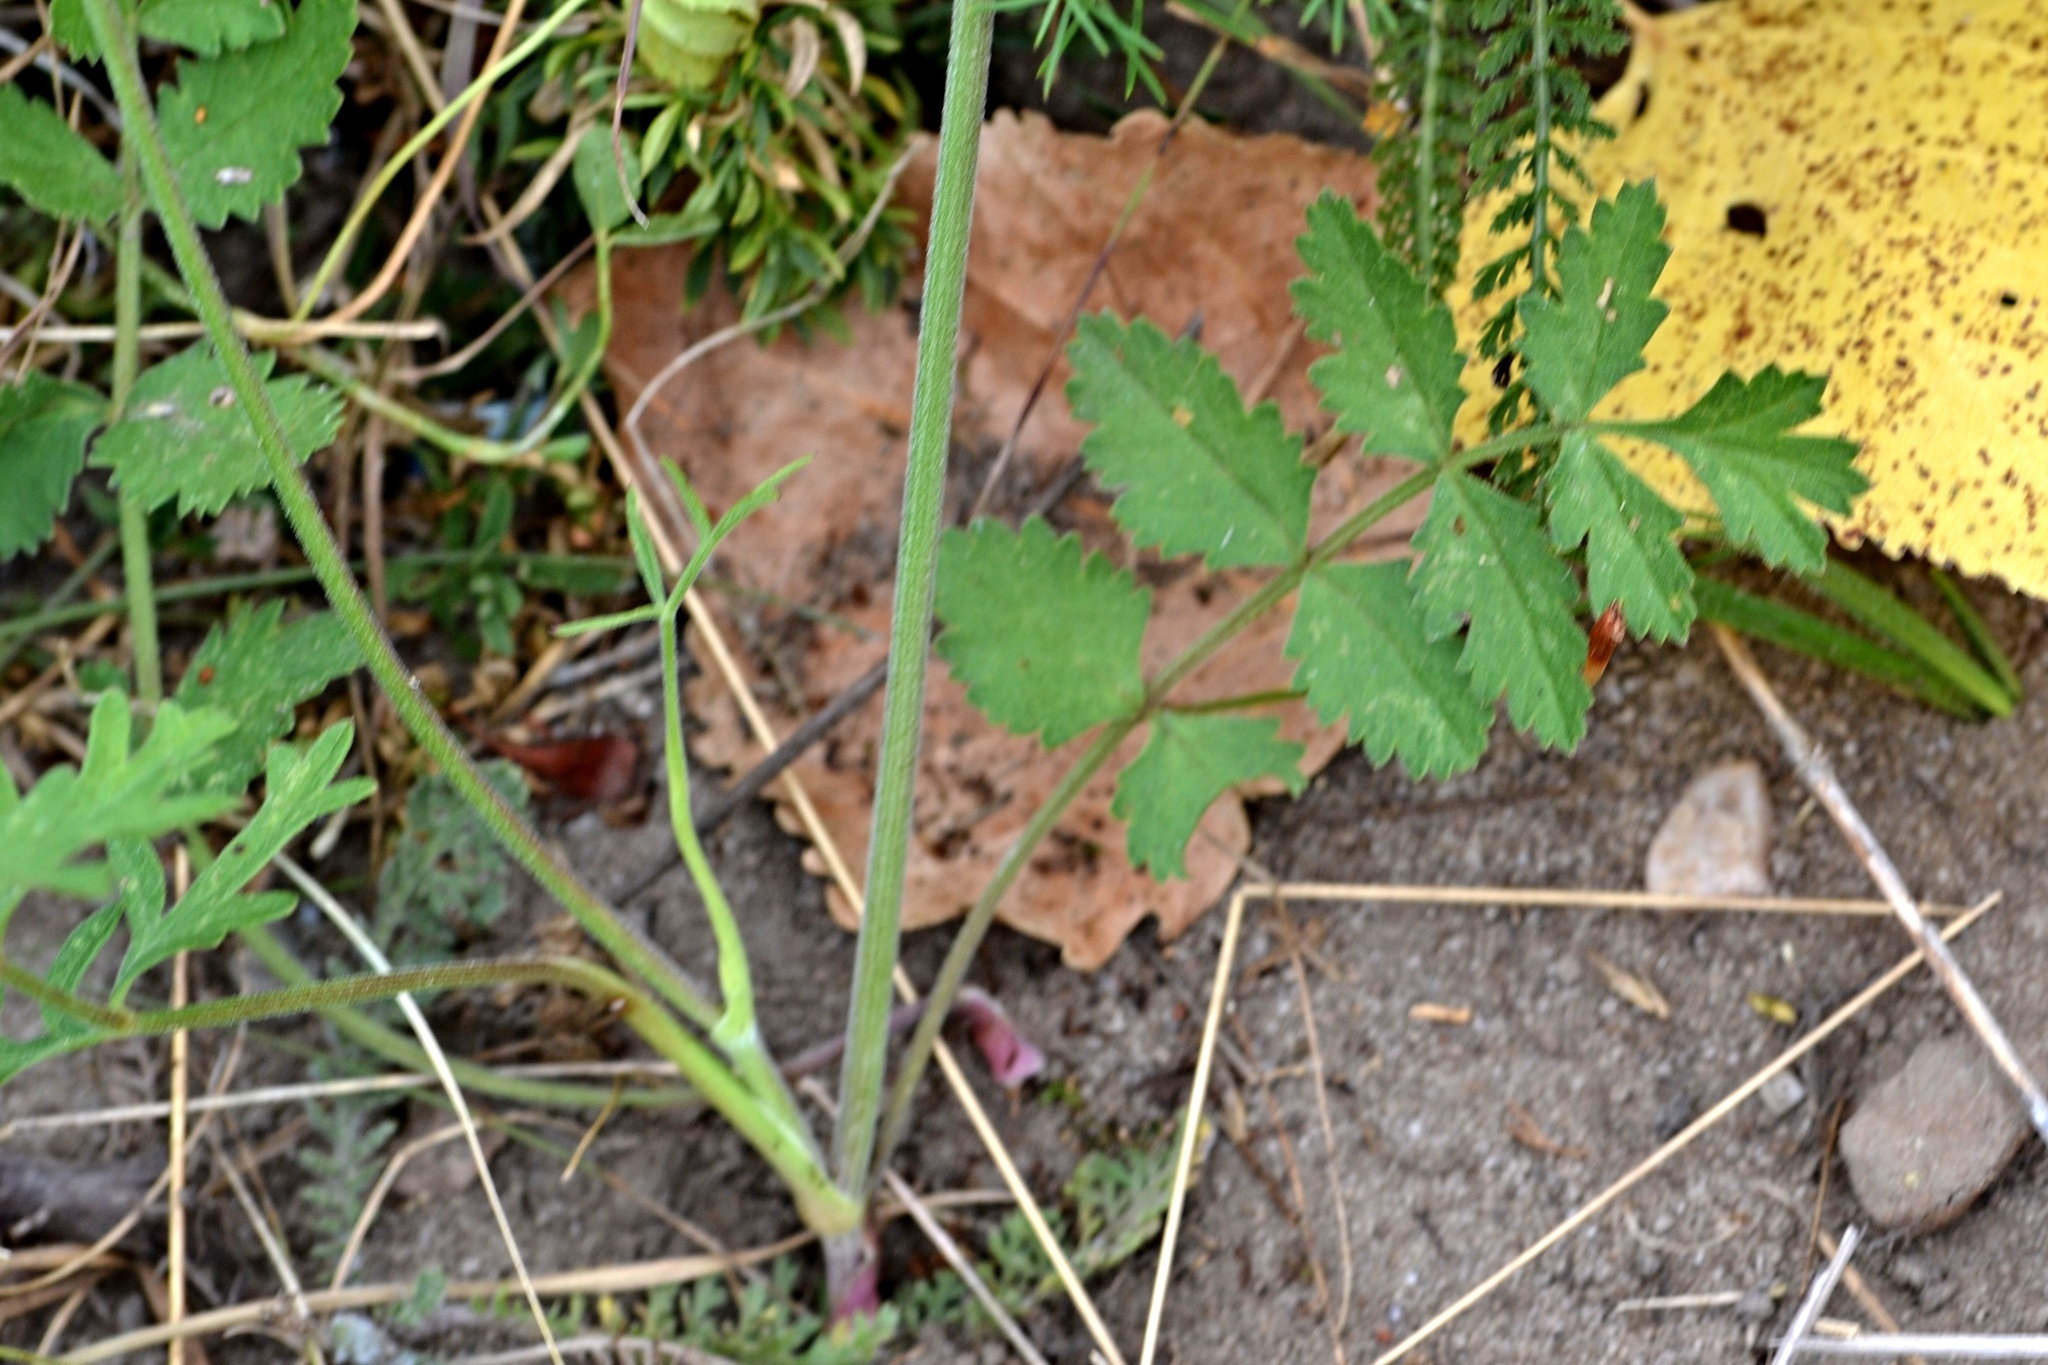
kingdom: Plantae
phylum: Tracheophyta
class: Magnoliopsida
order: Apiales
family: Apiaceae
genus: Pimpinella
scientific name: Pimpinella saxifraga
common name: Burnet-saxifrage
